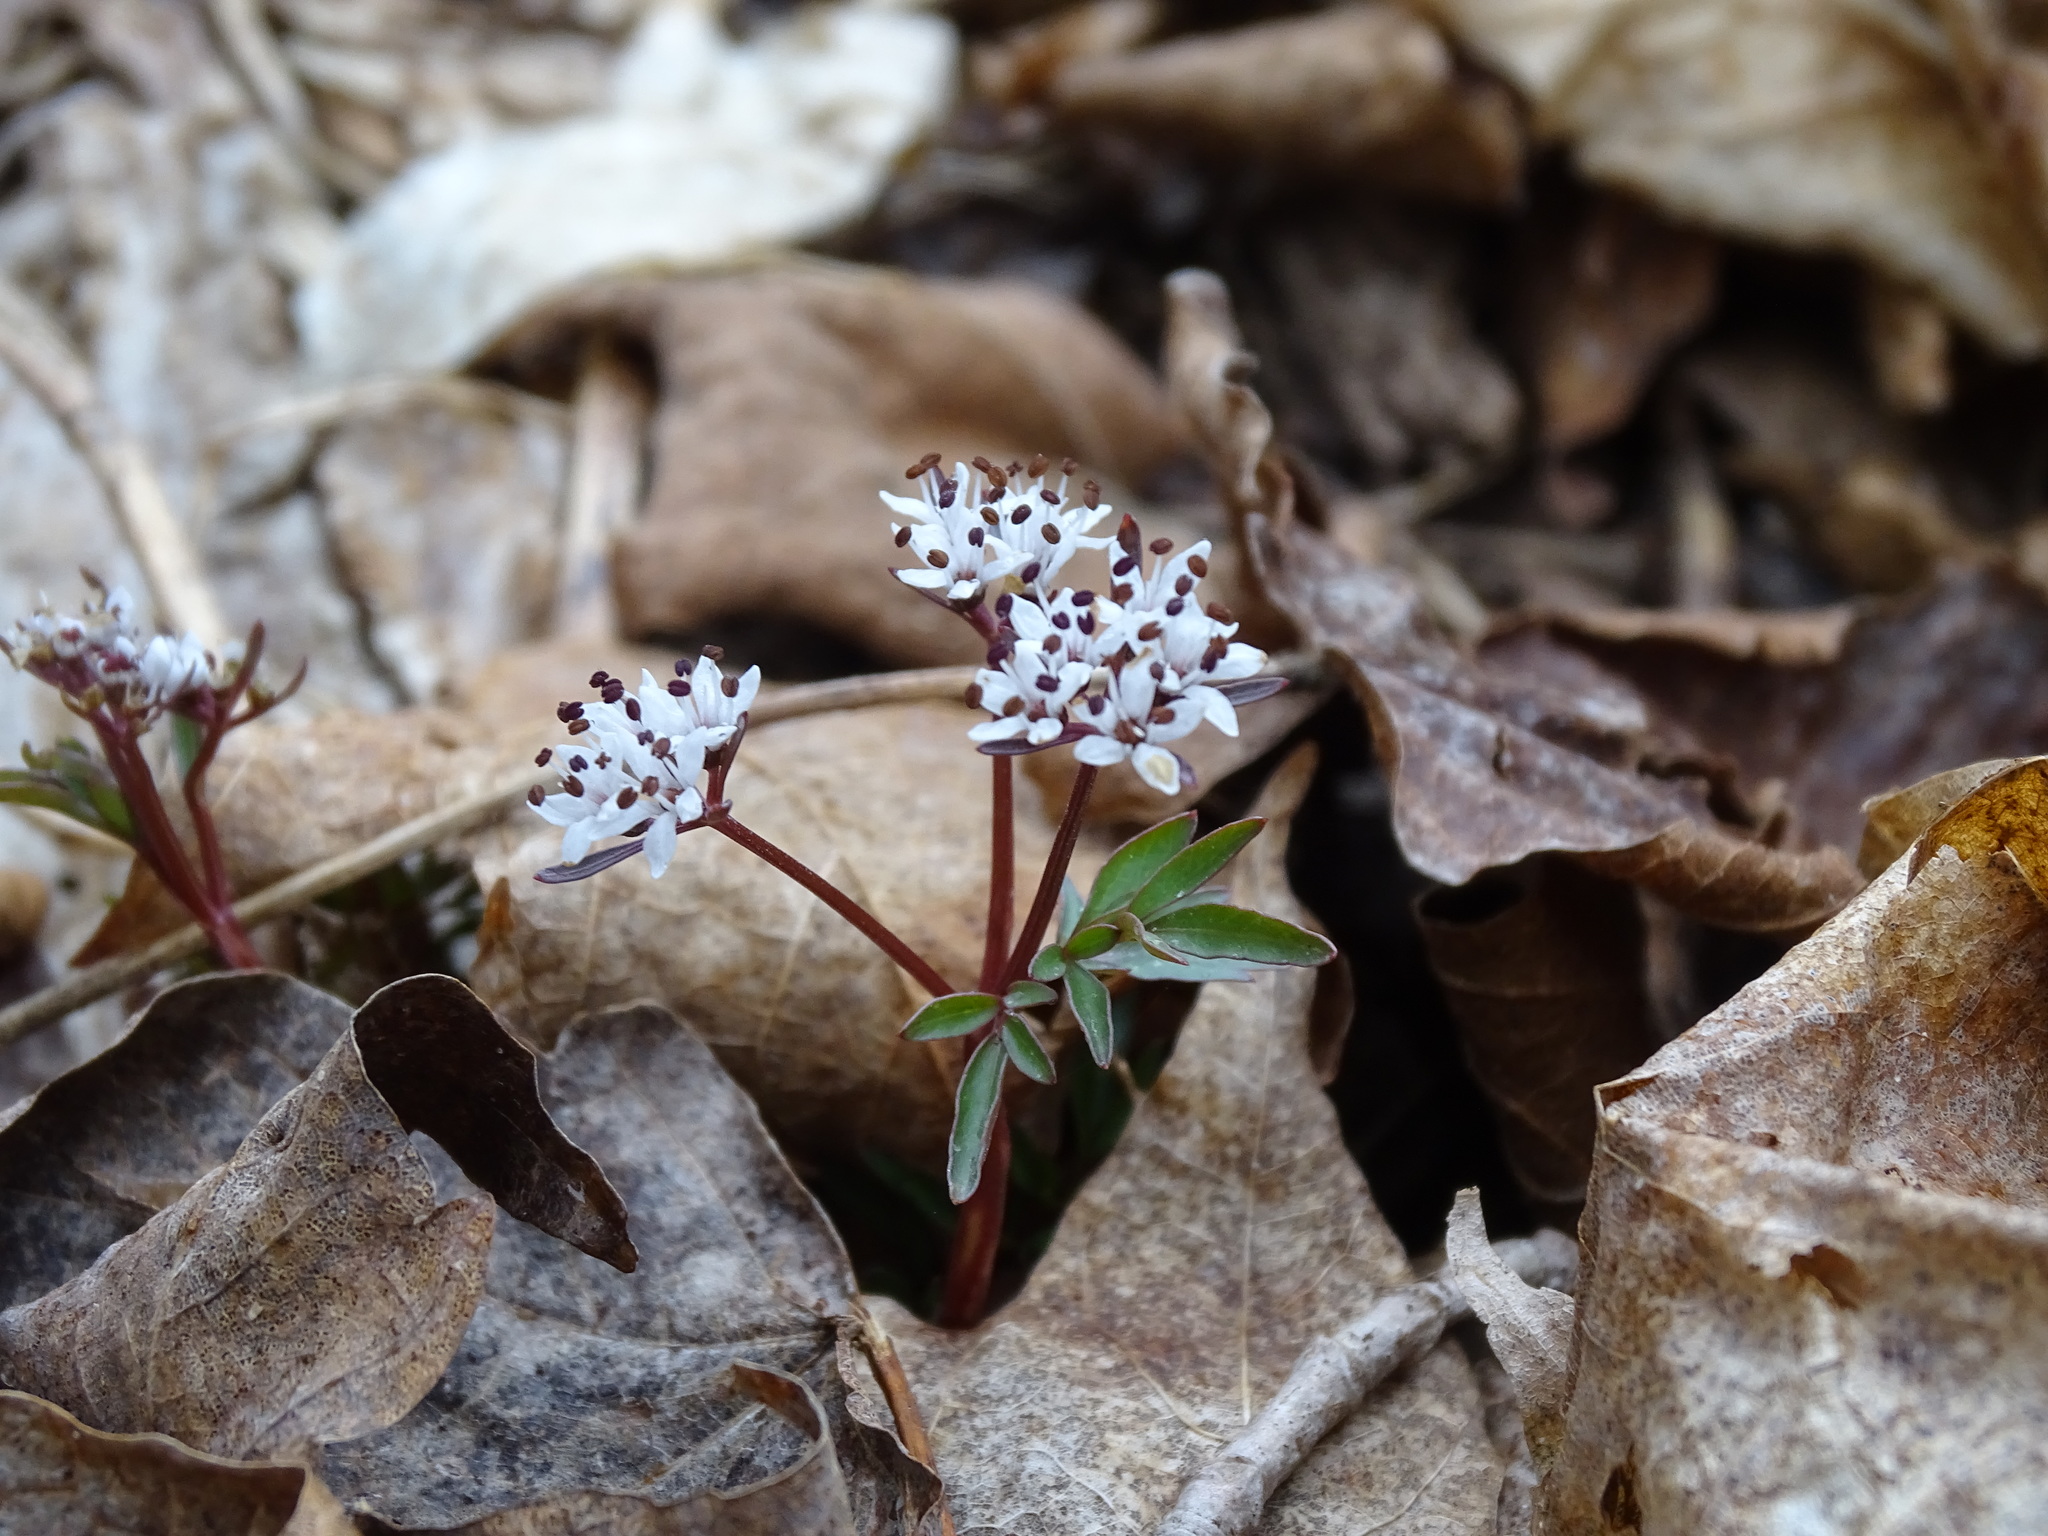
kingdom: Plantae
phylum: Tracheophyta
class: Magnoliopsida
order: Apiales
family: Apiaceae
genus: Erigenia
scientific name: Erigenia bulbosa
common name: Pepper-and-salt
